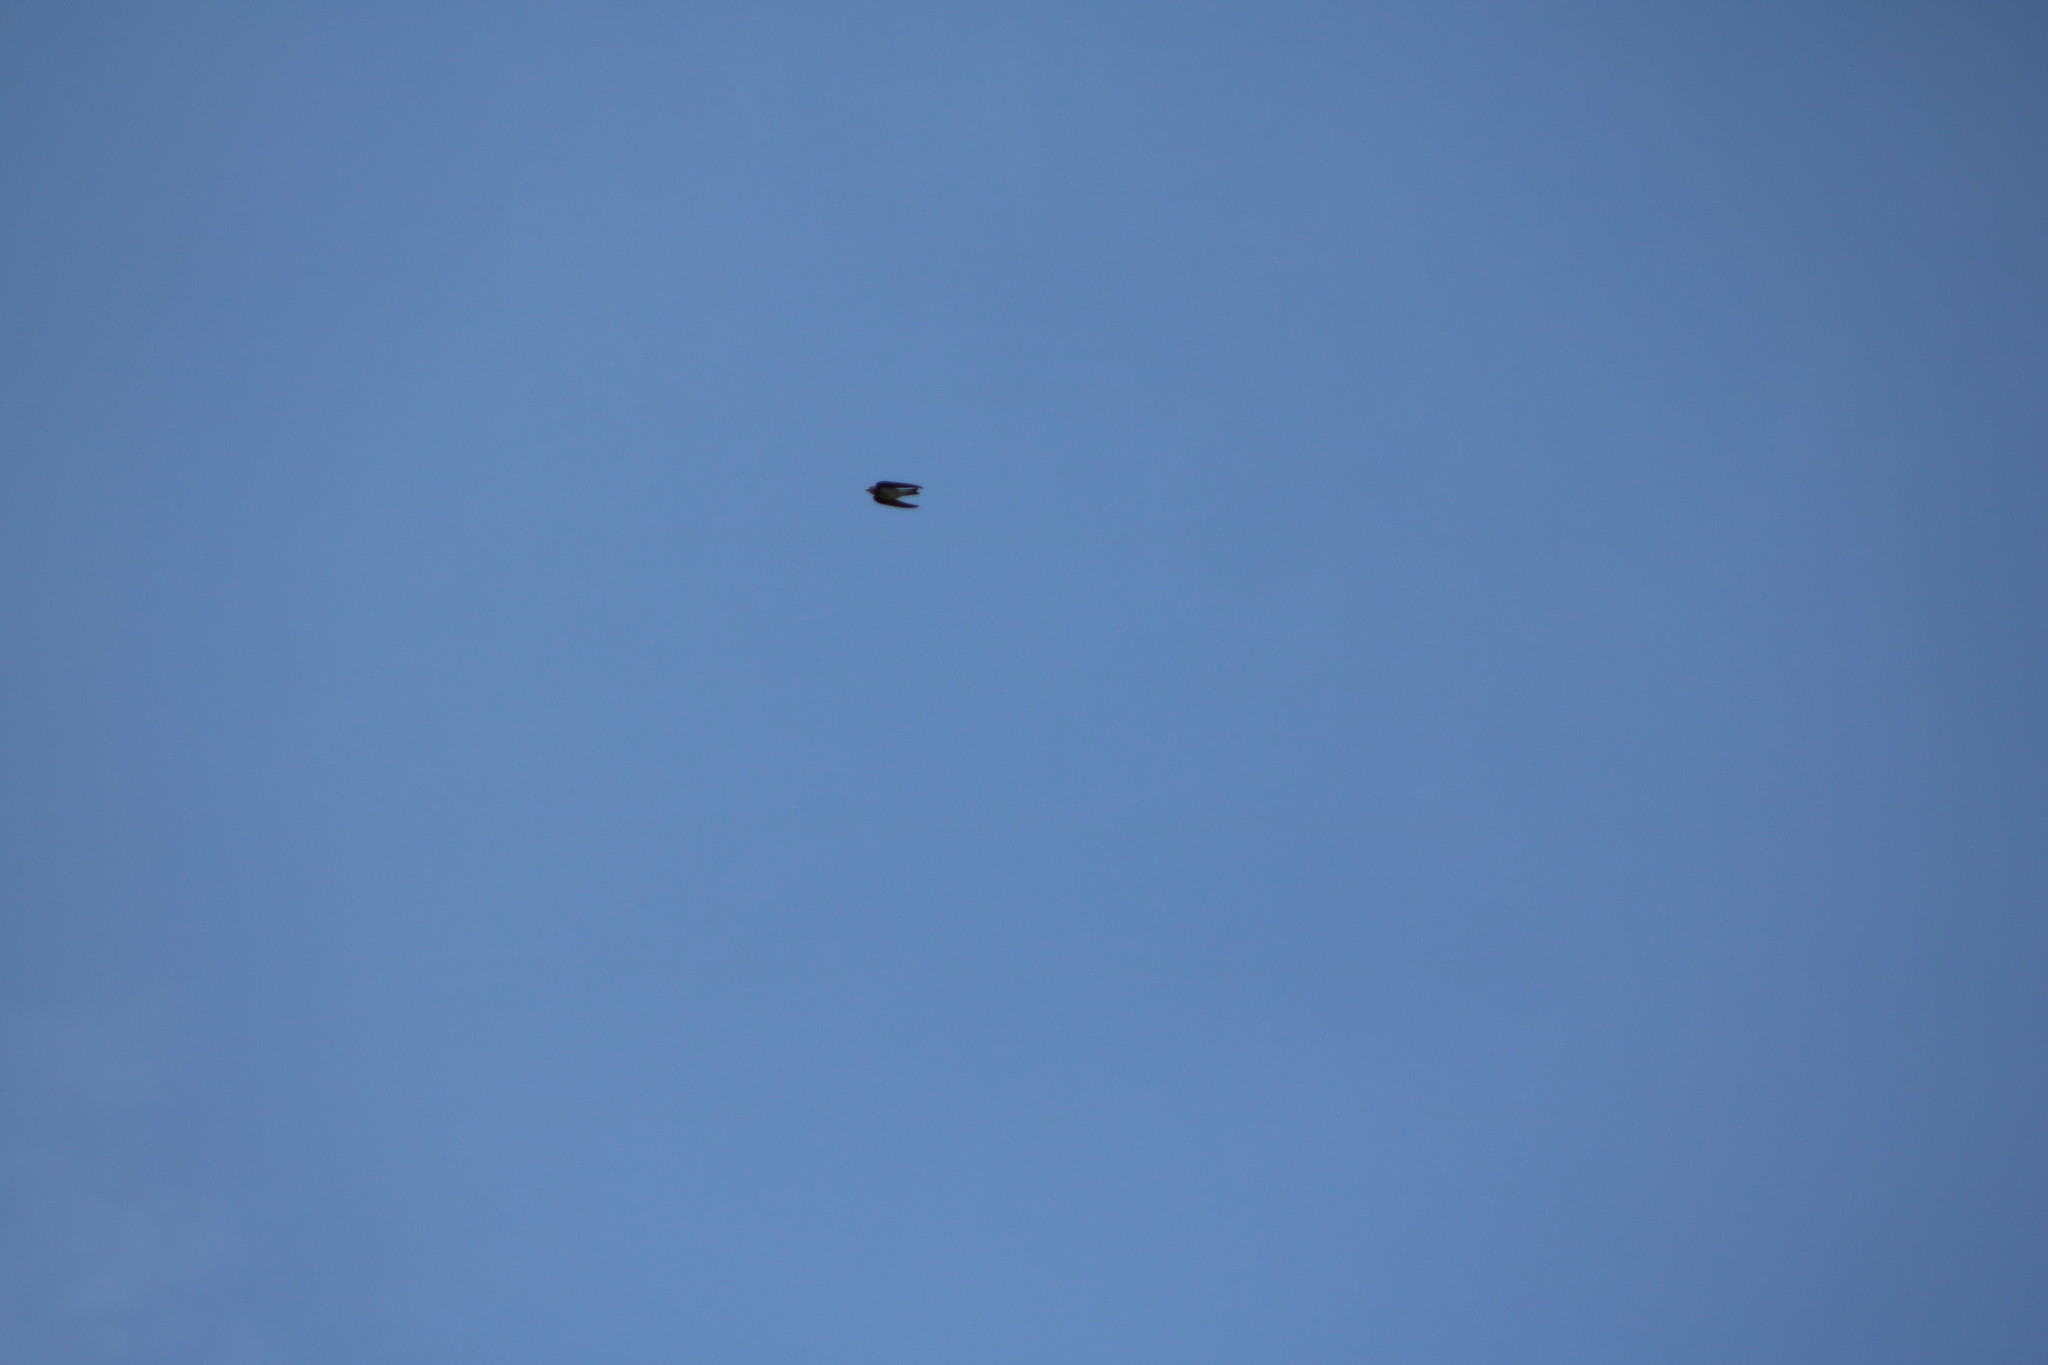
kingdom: Animalia
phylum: Chordata
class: Aves
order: Passeriformes
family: Hirundinidae
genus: Riparia
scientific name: Riparia riparia
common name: Sand martin
